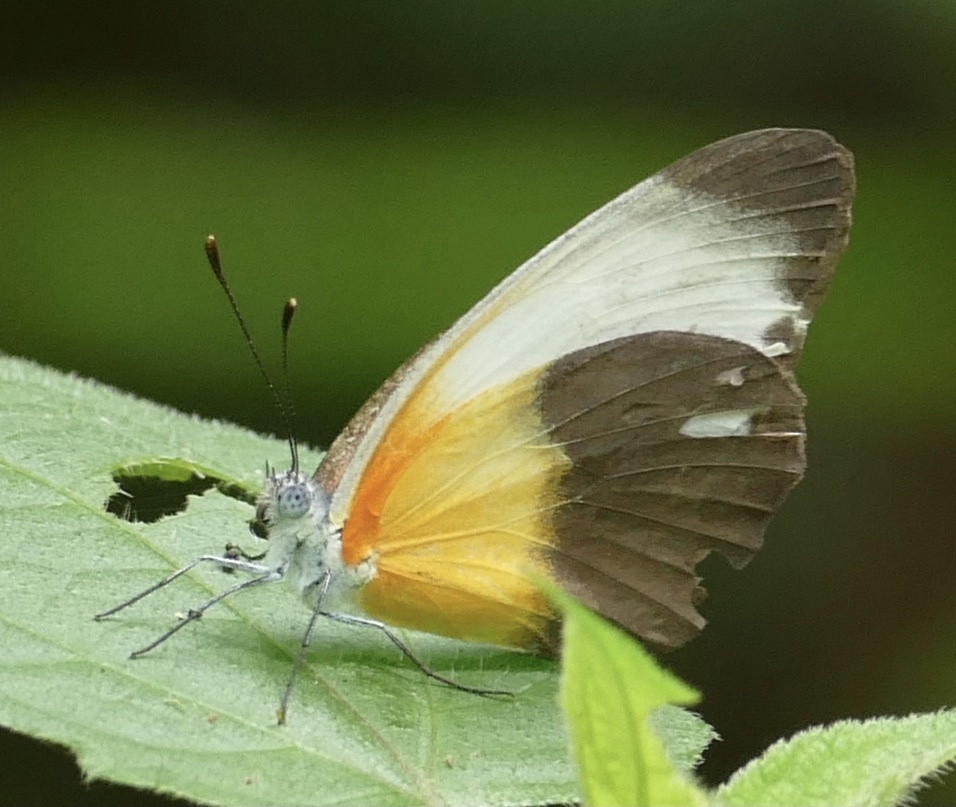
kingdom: Animalia
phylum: Arthropoda
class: Insecta
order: Lepidoptera
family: Pieridae
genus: Mylothris
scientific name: Mylothris chloris
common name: Western dotted border
